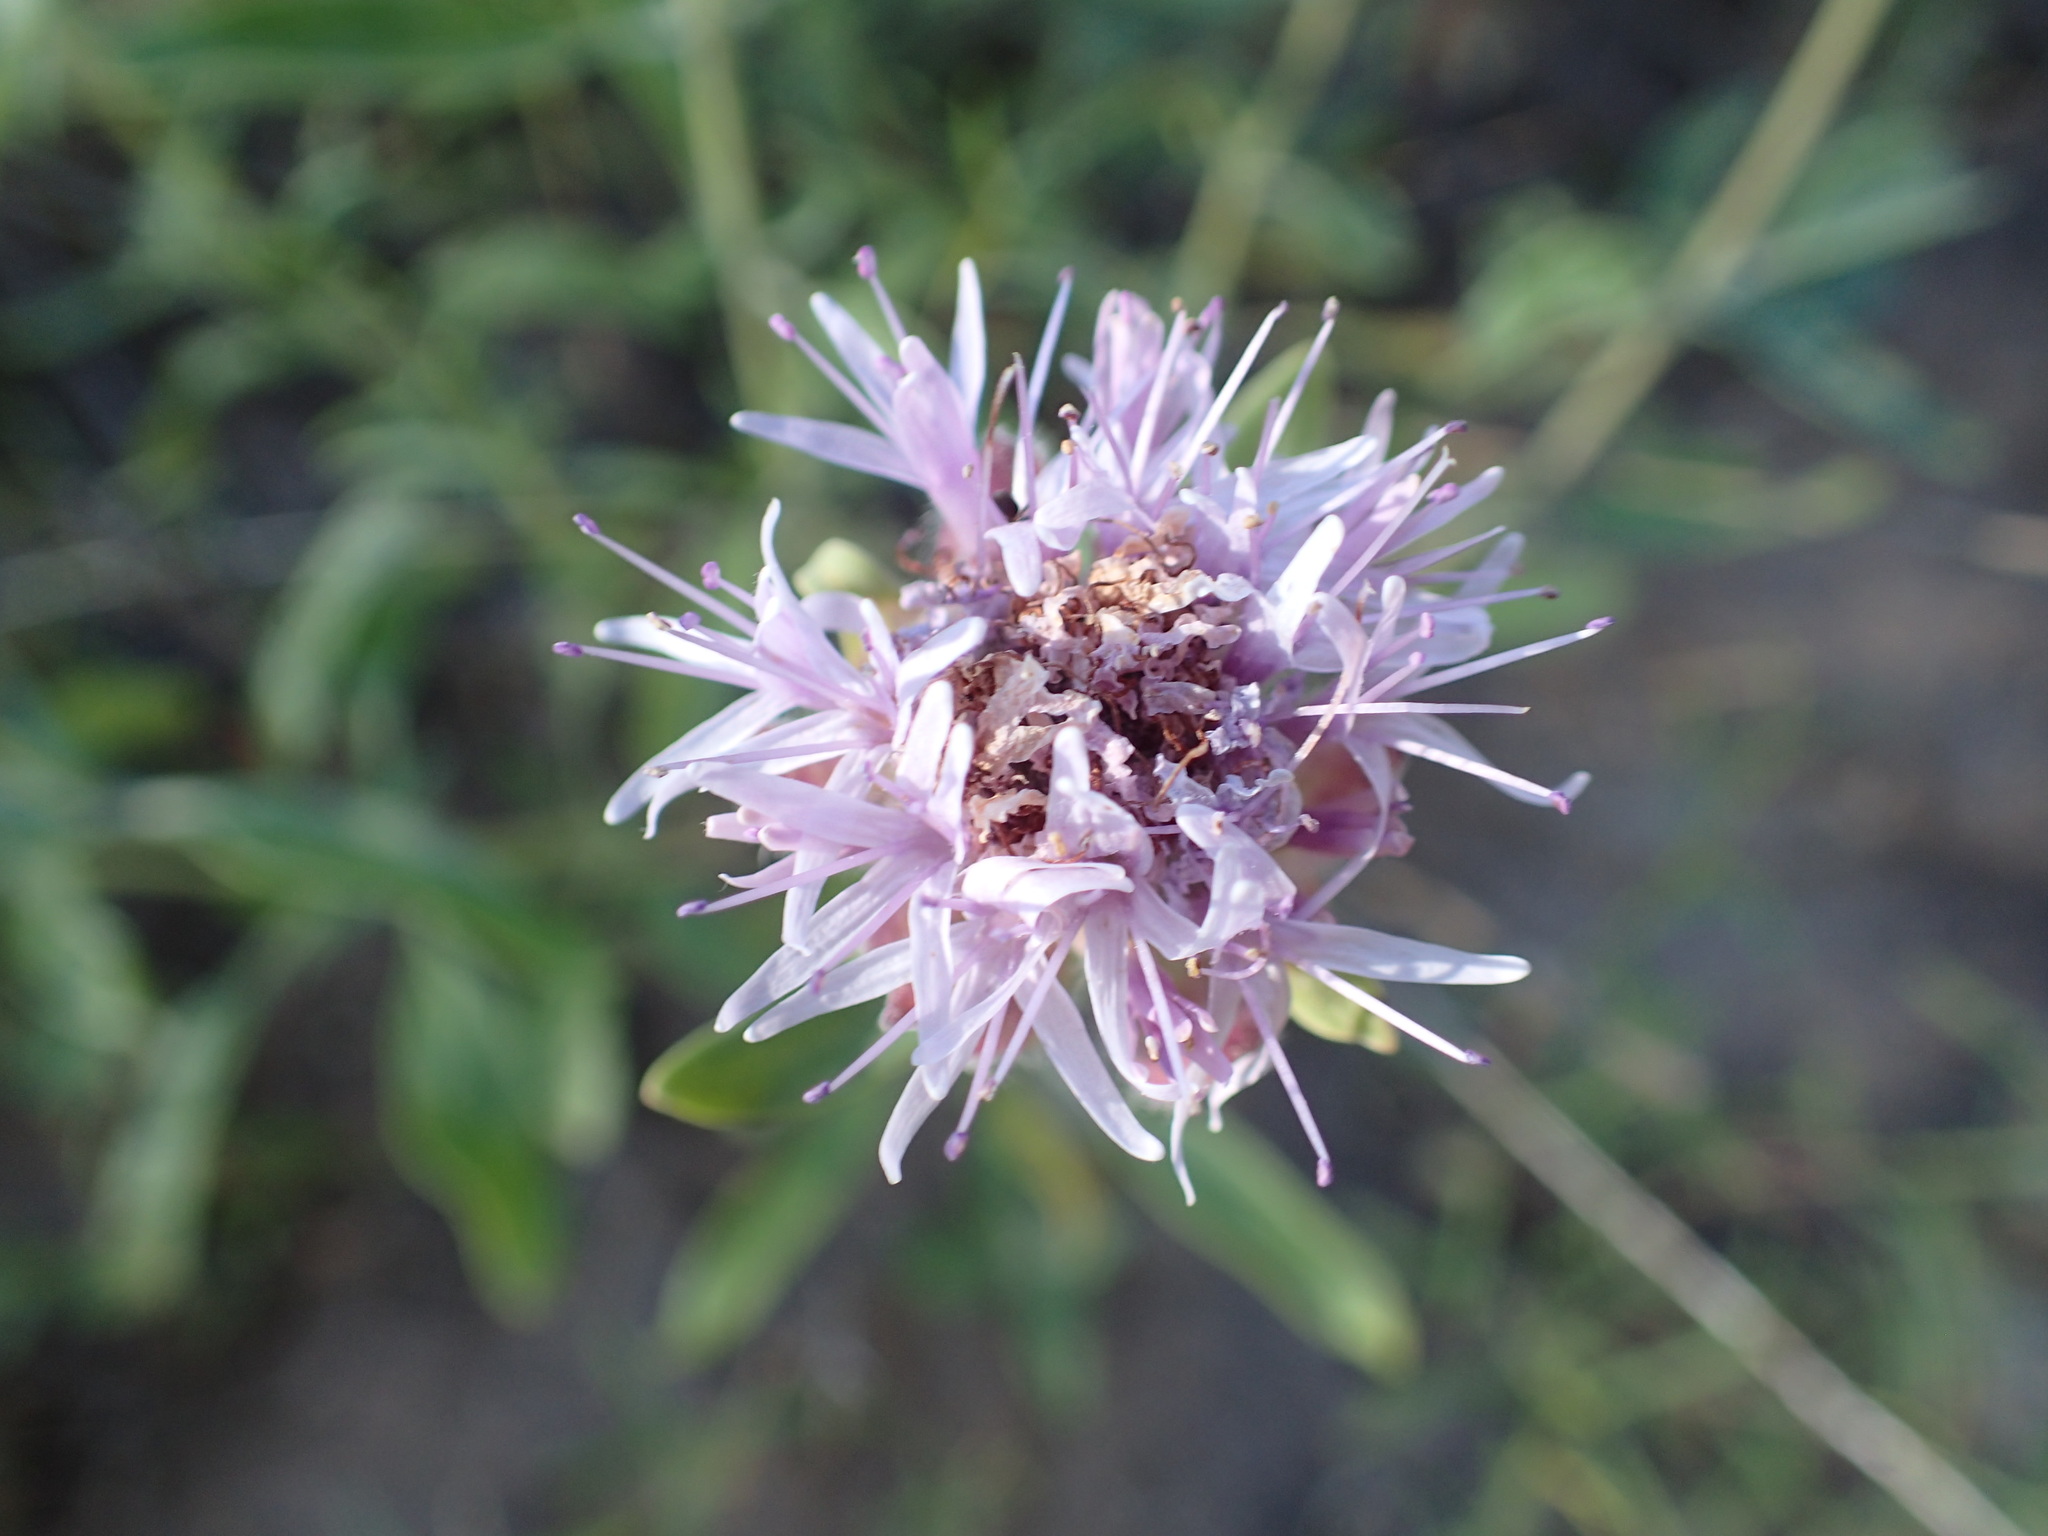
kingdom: Plantae
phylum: Tracheophyta
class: Magnoliopsida
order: Lamiales
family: Lamiaceae
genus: Monardella
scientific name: Monardella odoratissima
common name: Pacific monardella
